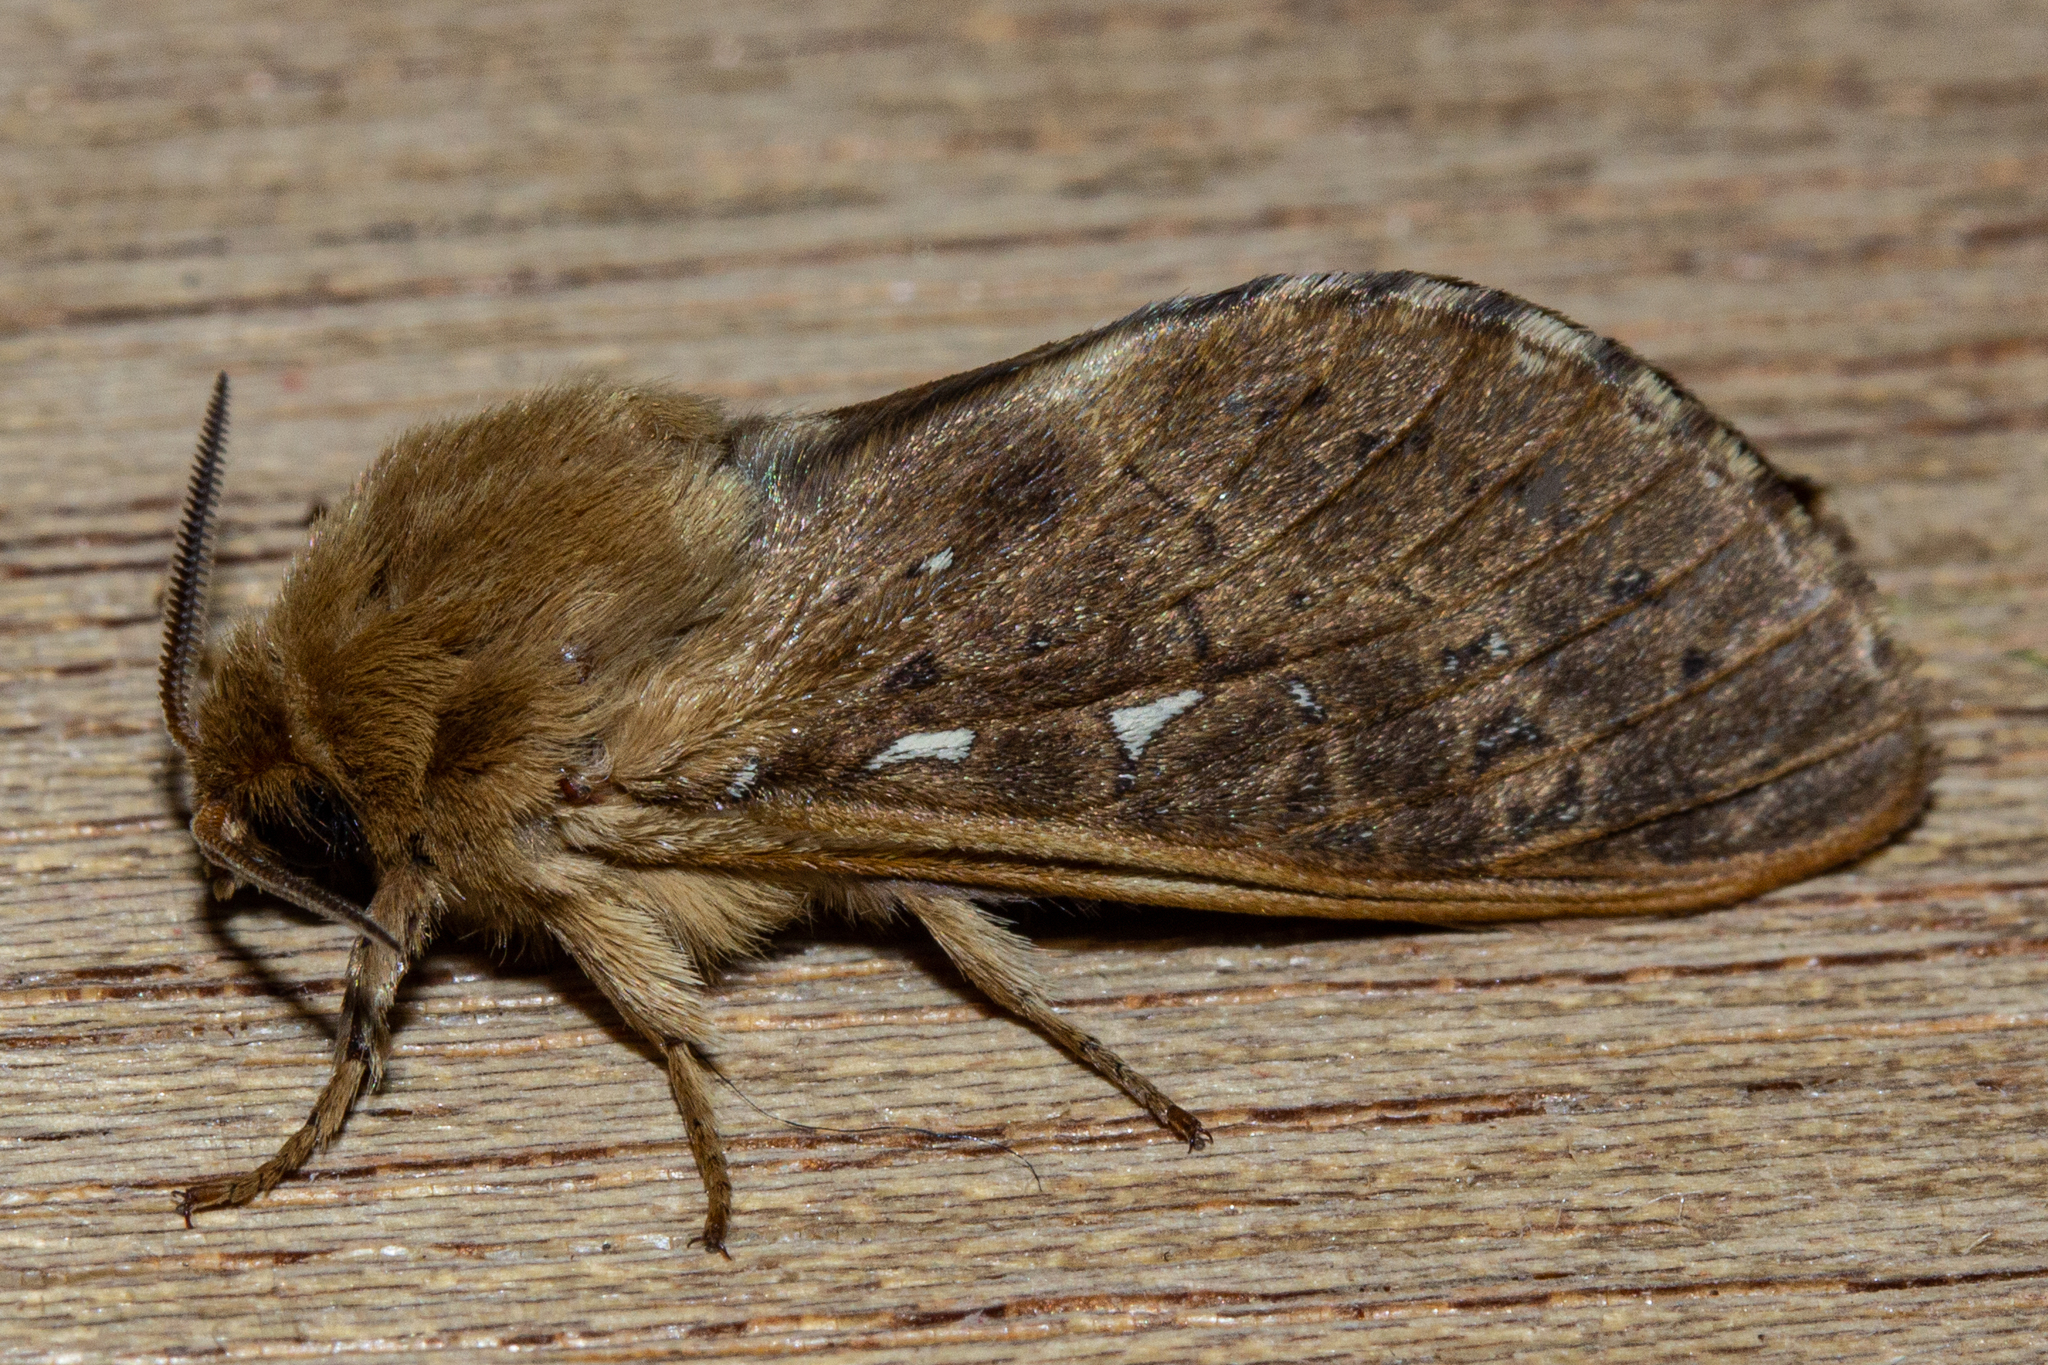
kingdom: Animalia
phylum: Arthropoda
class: Insecta
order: Lepidoptera
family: Hepialidae
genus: Wiseana
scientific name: Wiseana copularis
